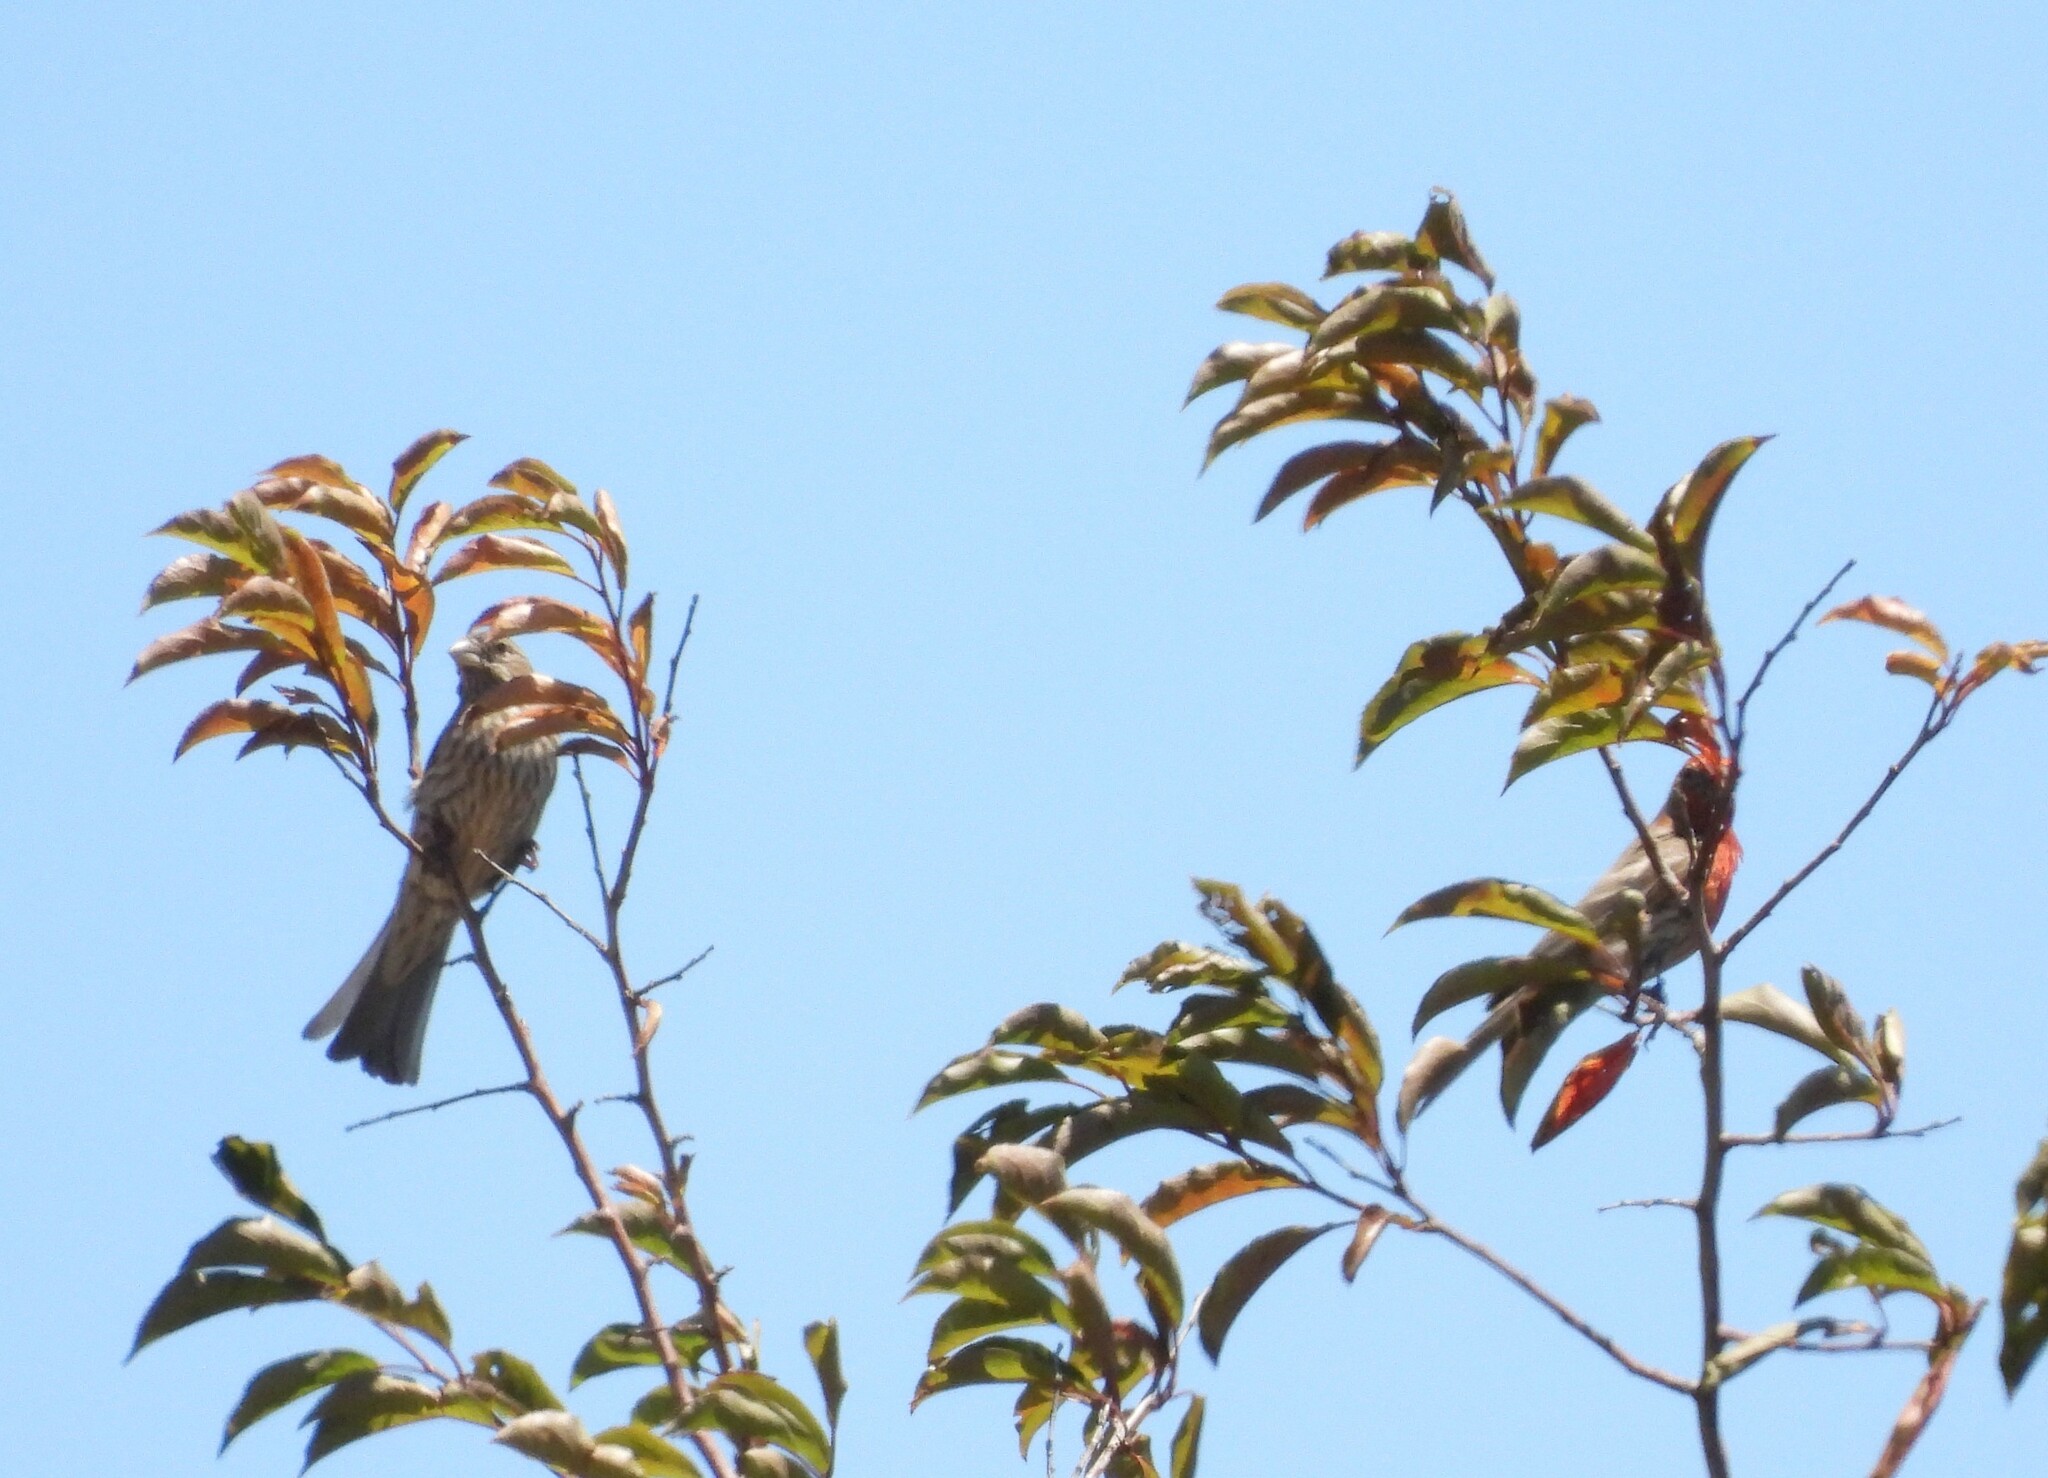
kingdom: Animalia
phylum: Chordata
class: Aves
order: Passeriformes
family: Fringillidae
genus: Haemorhous
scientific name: Haemorhous mexicanus
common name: House finch
